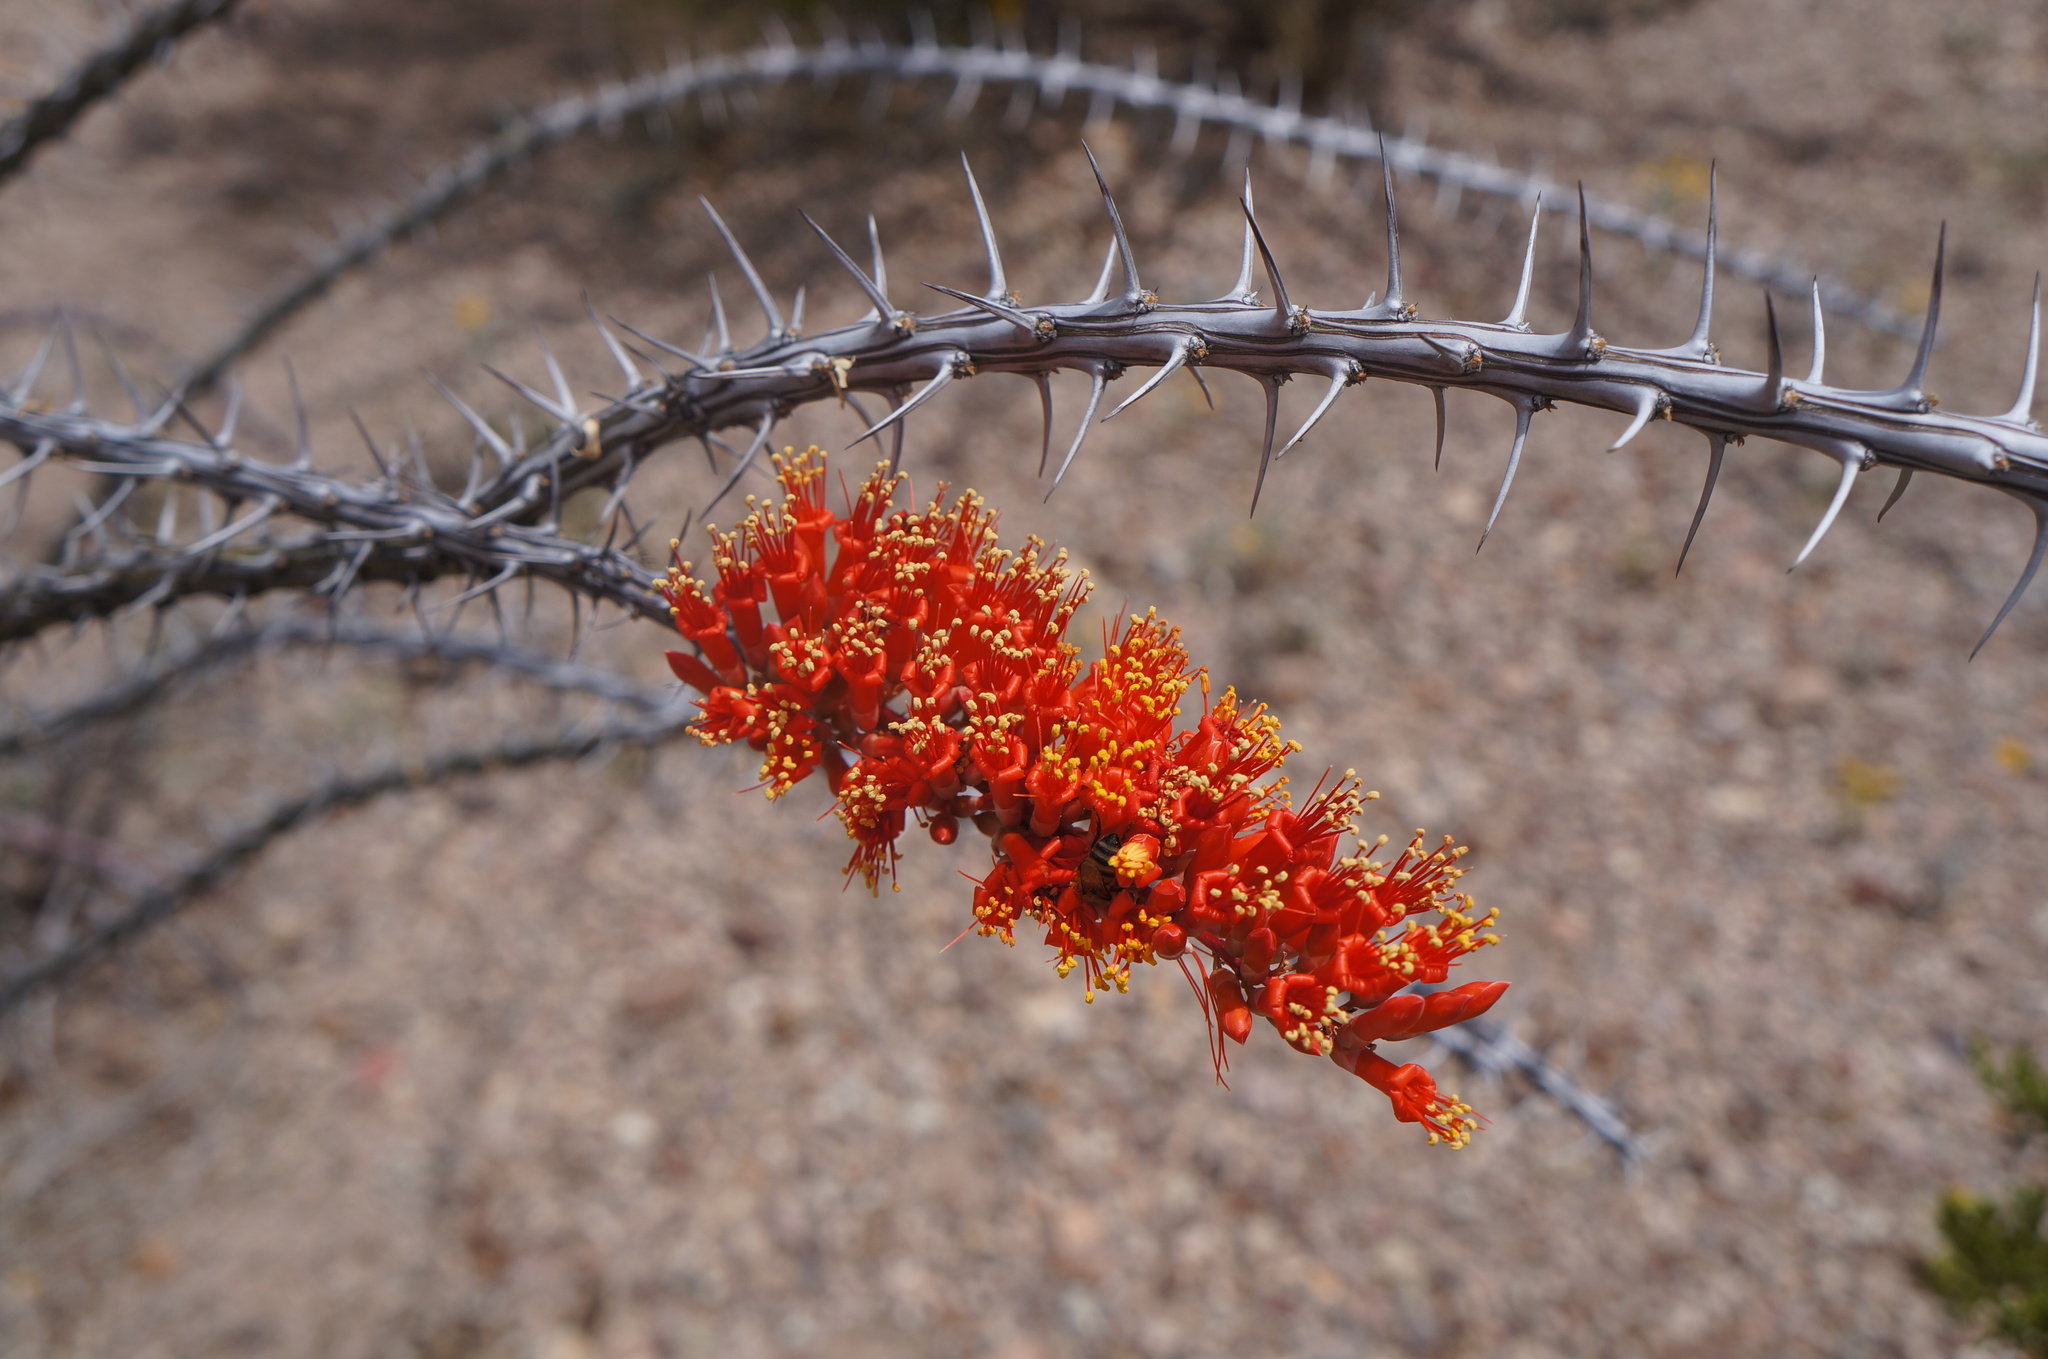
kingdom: Plantae
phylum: Tracheophyta
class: Magnoliopsida
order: Ericales
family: Fouquieriaceae
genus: Fouquieria
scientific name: Fouquieria splendens
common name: Vine-cactus
